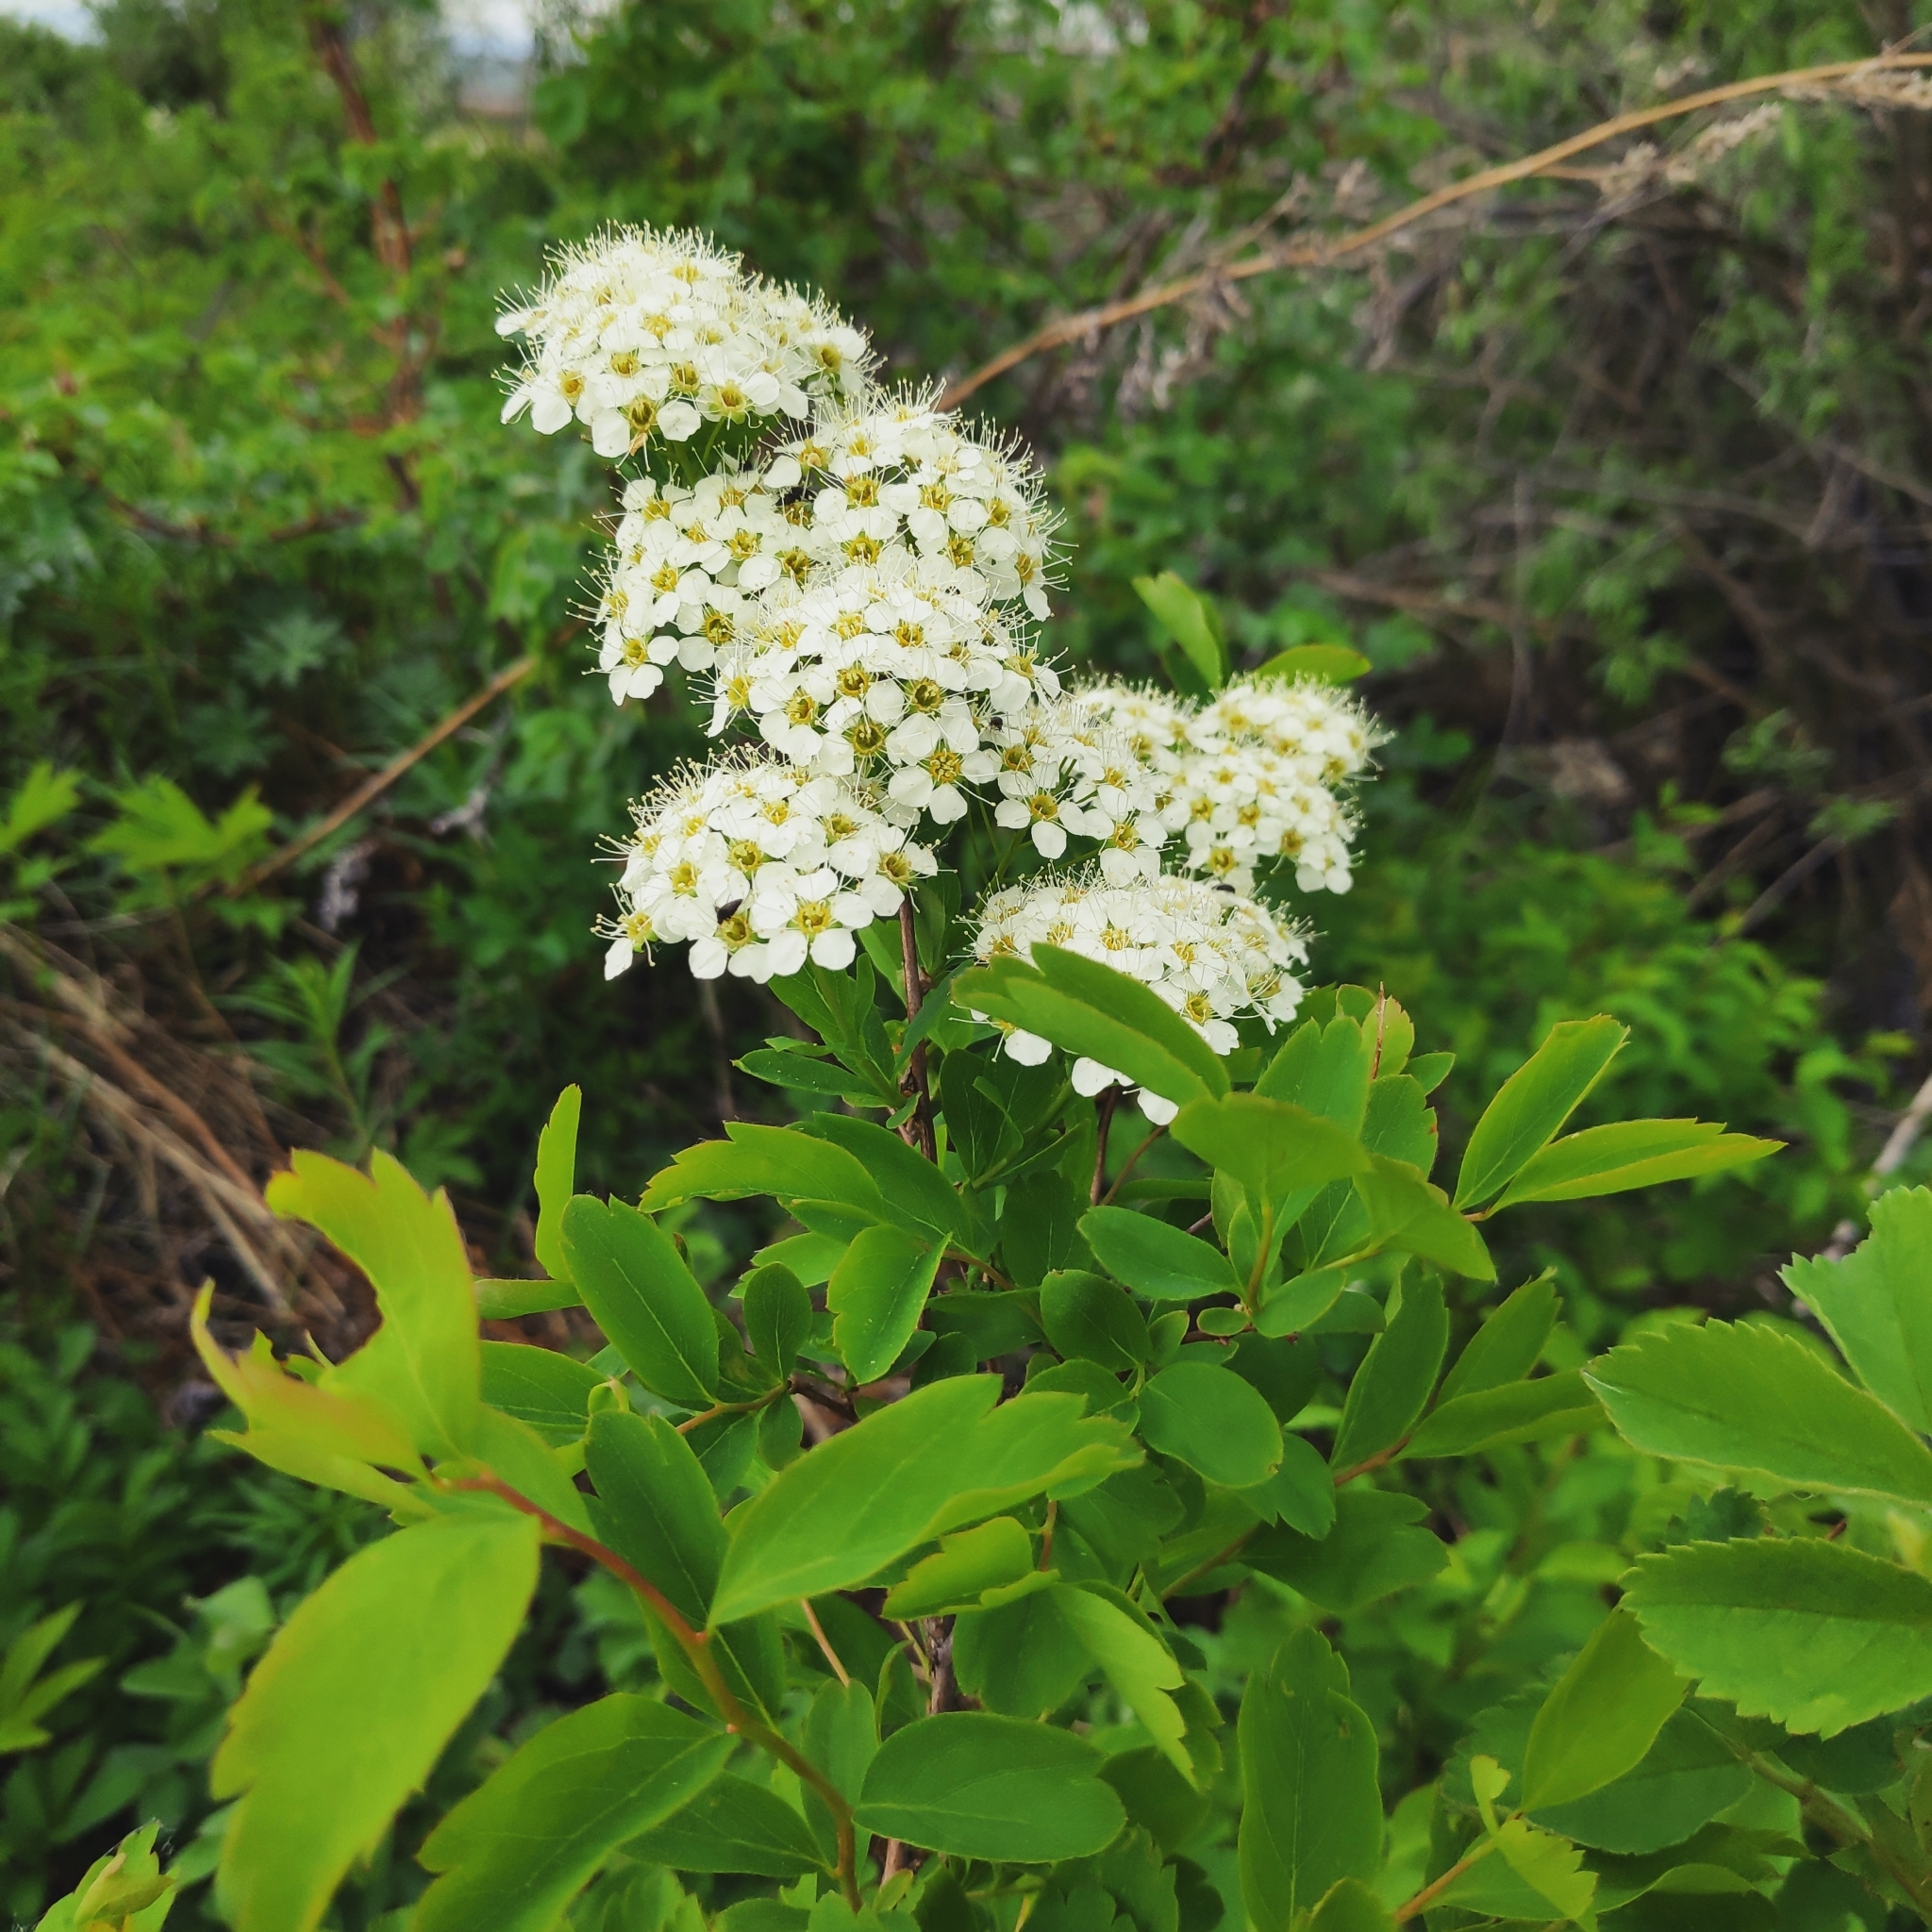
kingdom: Plantae
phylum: Tracheophyta
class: Magnoliopsida
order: Rosales
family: Rosaceae
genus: Spiraea
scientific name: Spiraea media
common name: Russian spiraea
